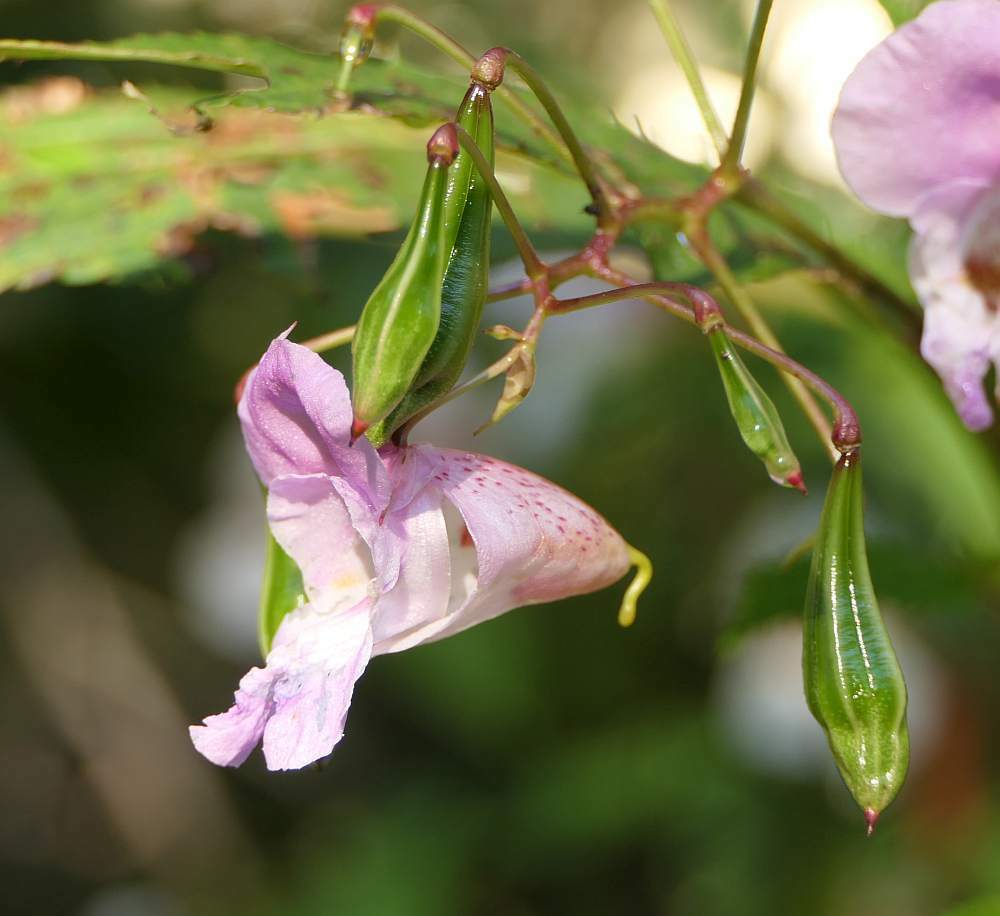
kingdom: Plantae
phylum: Tracheophyta
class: Magnoliopsida
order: Ericales
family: Balsaminaceae
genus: Impatiens
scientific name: Impatiens glandulifera
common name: Himalayan balsam
